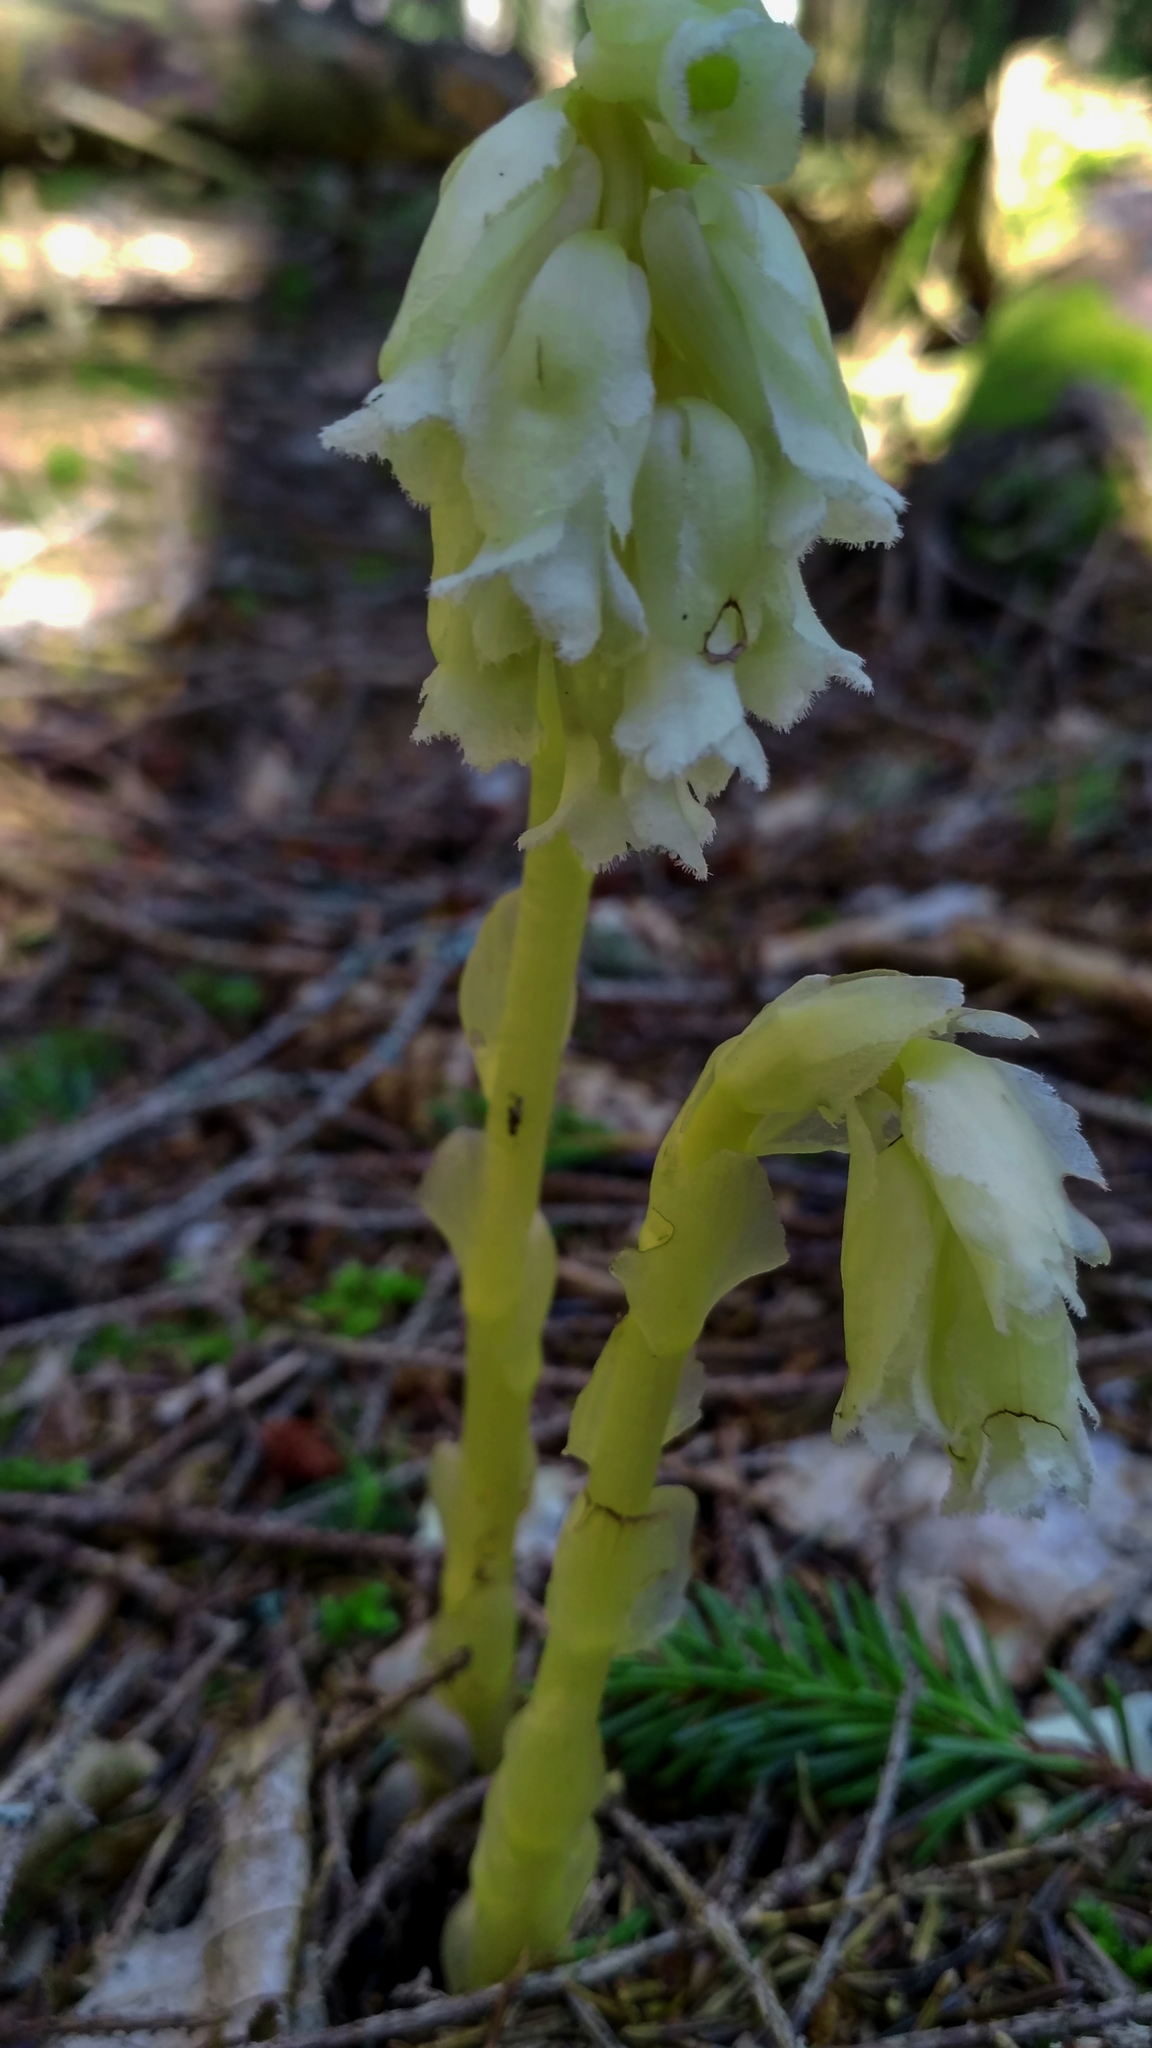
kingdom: Plantae
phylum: Tracheophyta
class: Magnoliopsida
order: Ericales
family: Ericaceae
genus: Hypopitys
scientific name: Hypopitys monotropa
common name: Yellow bird's-nest
